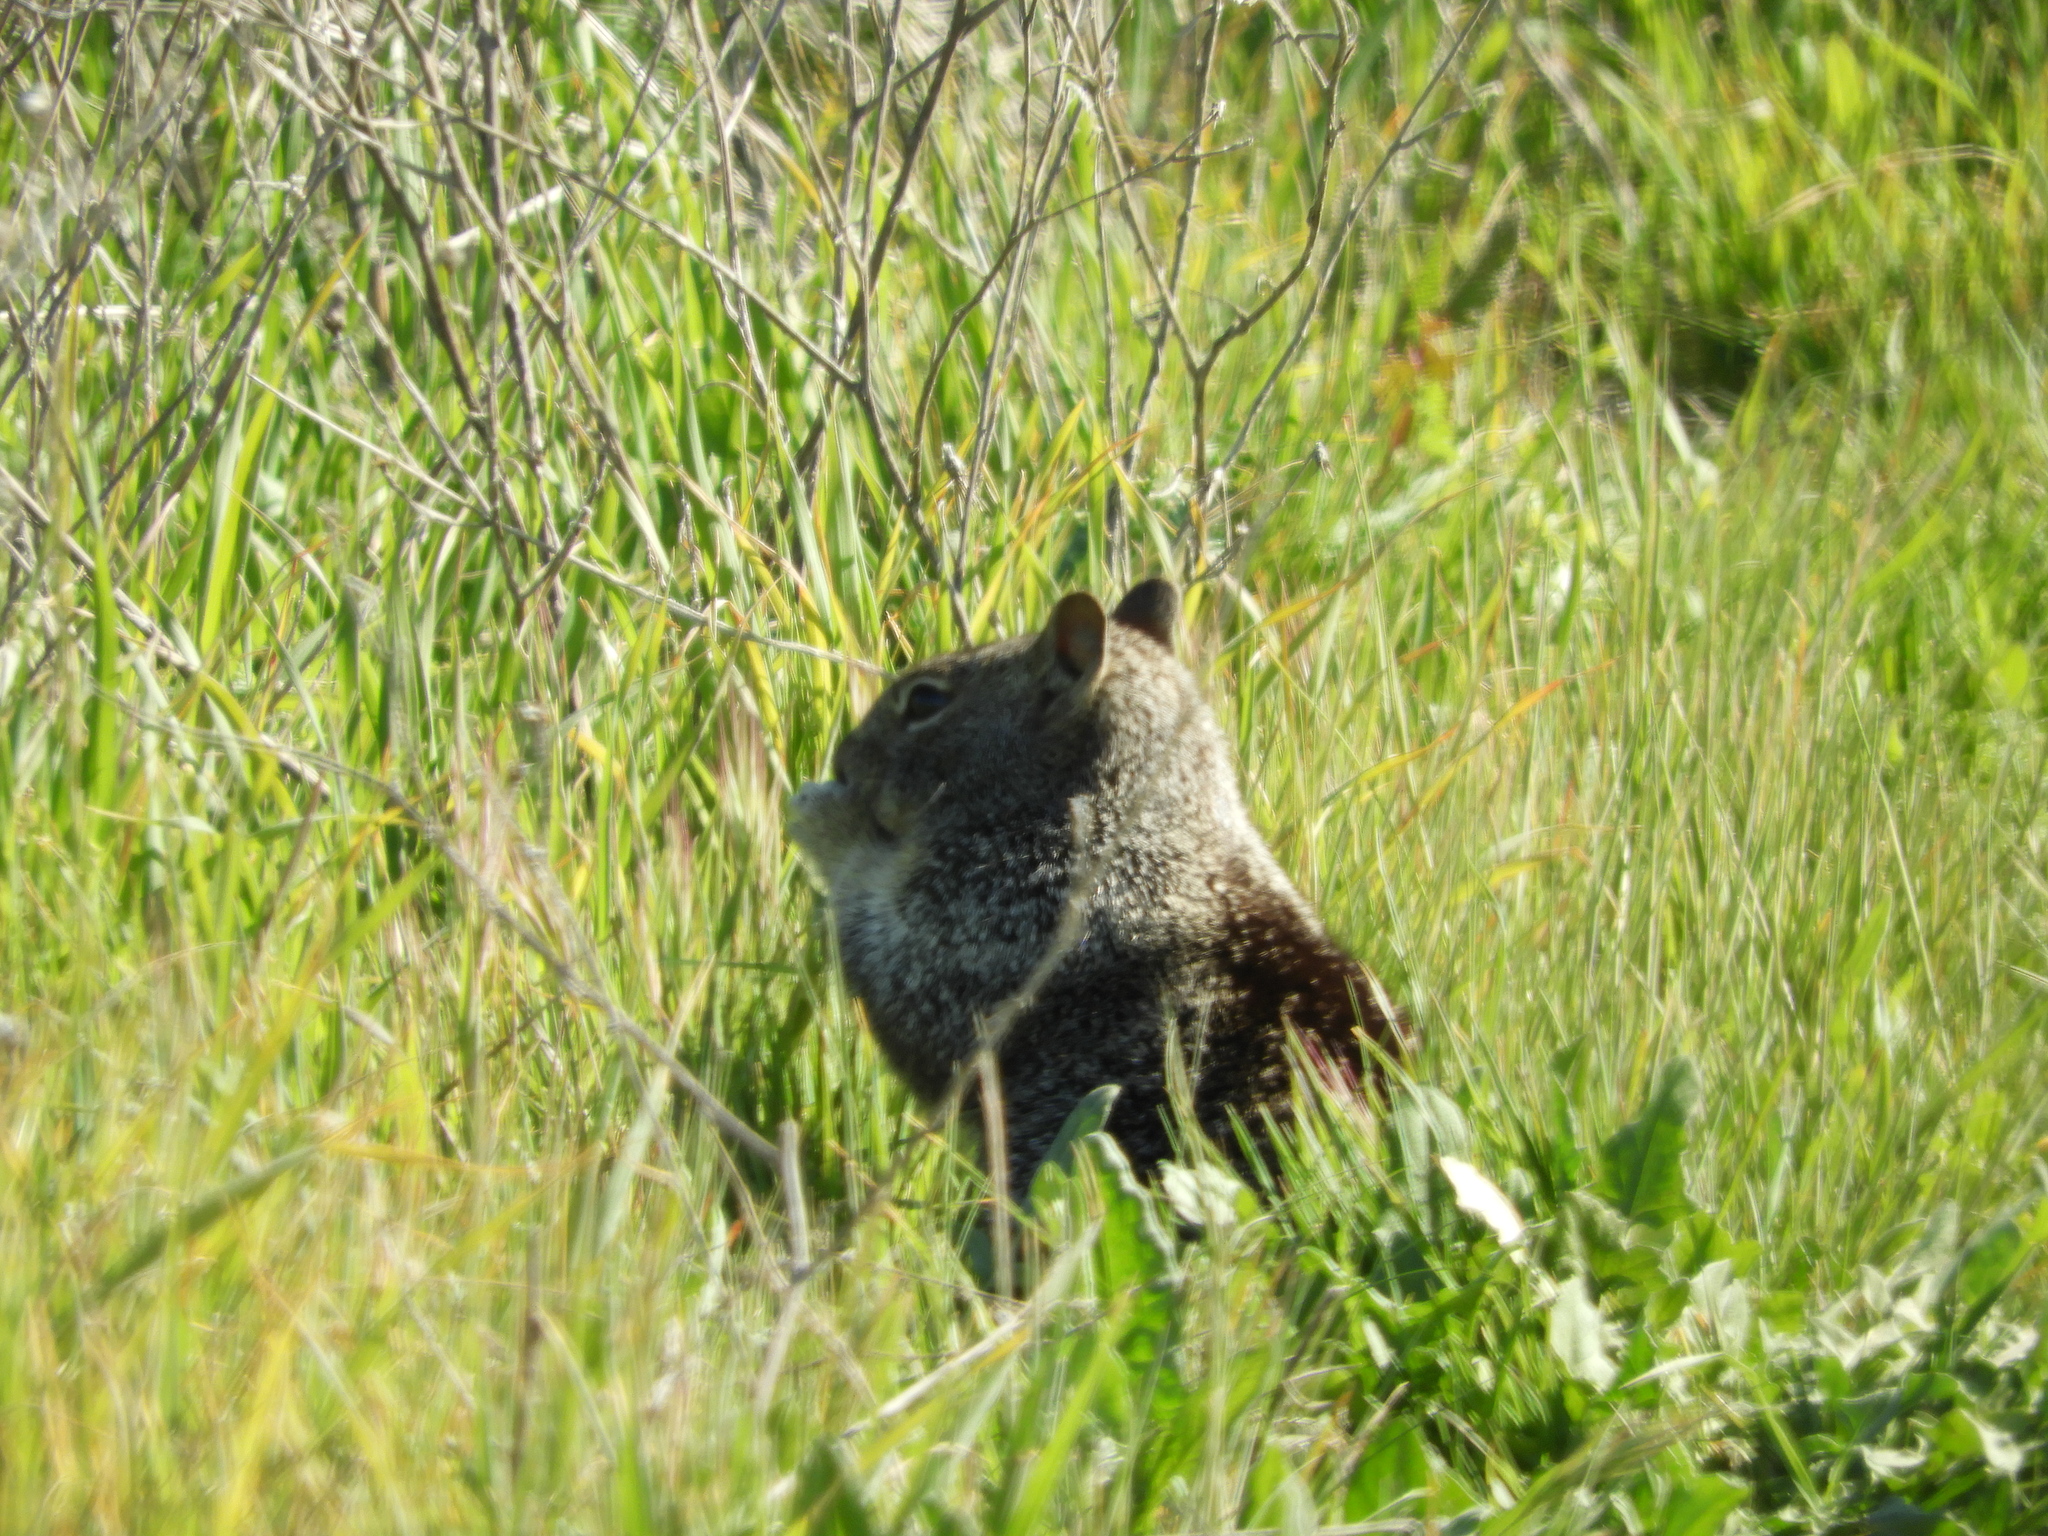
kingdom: Animalia
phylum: Chordata
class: Mammalia
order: Rodentia
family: Sciuridae
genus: Otospermophilus
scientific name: Otospermophilus beecheyi
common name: California ground squirrel
